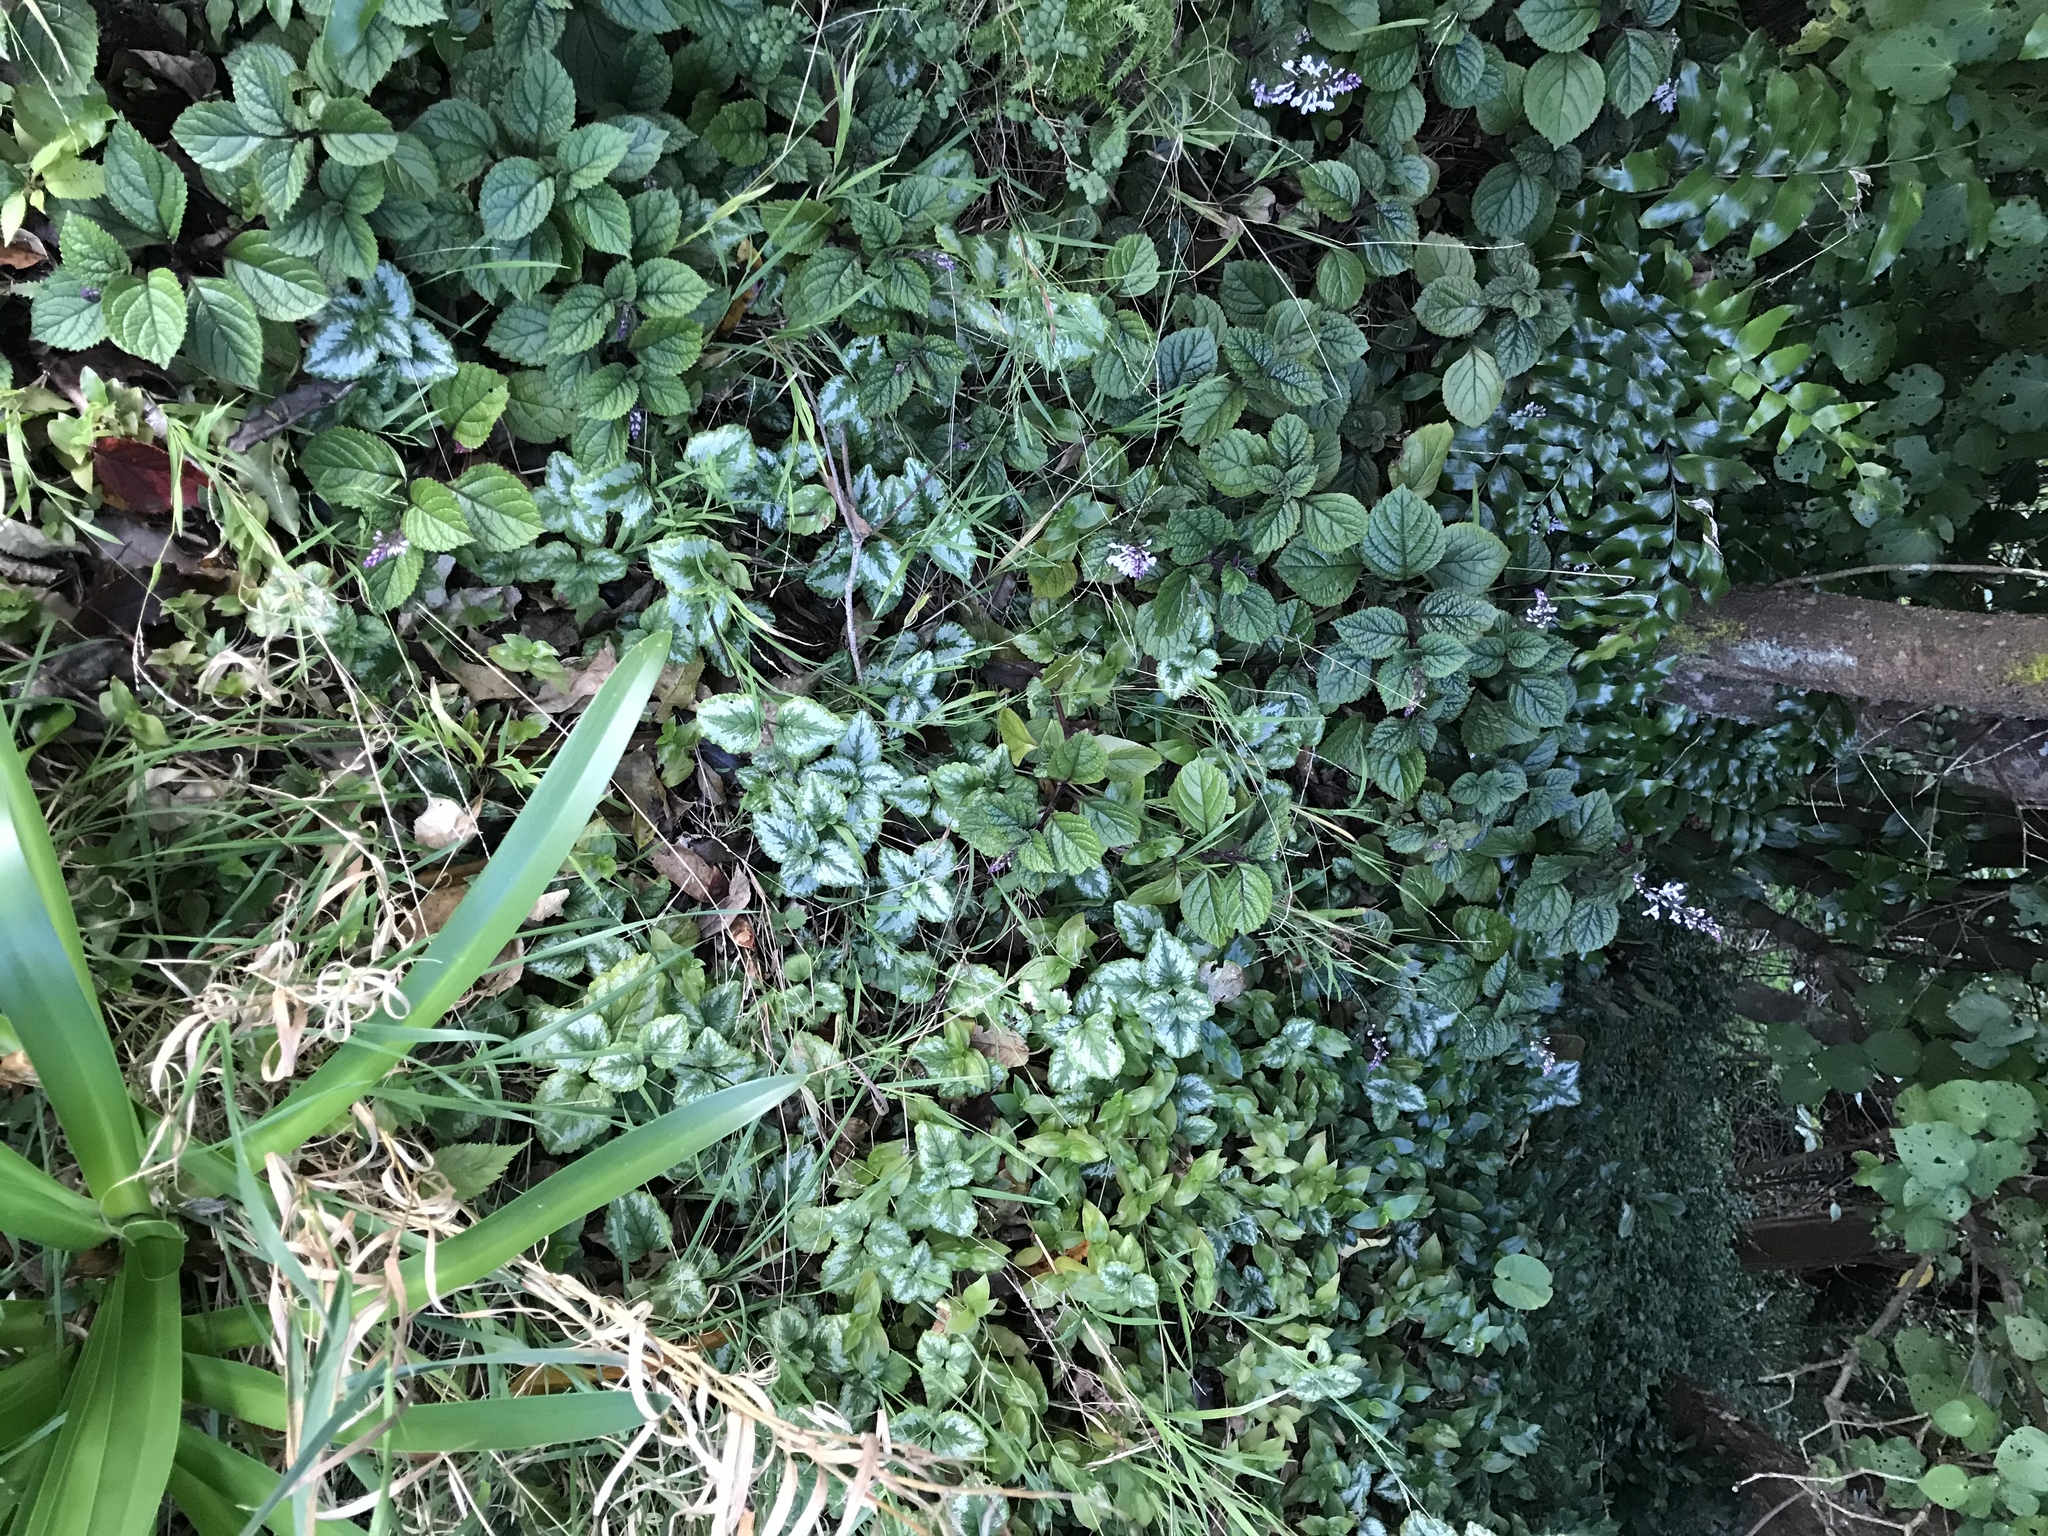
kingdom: Plantae
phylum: Tracheophyta
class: Magnoliopsida
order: Lamiales
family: Lamiaceae
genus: Plectranthus
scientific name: Plectranthus ciliatus
